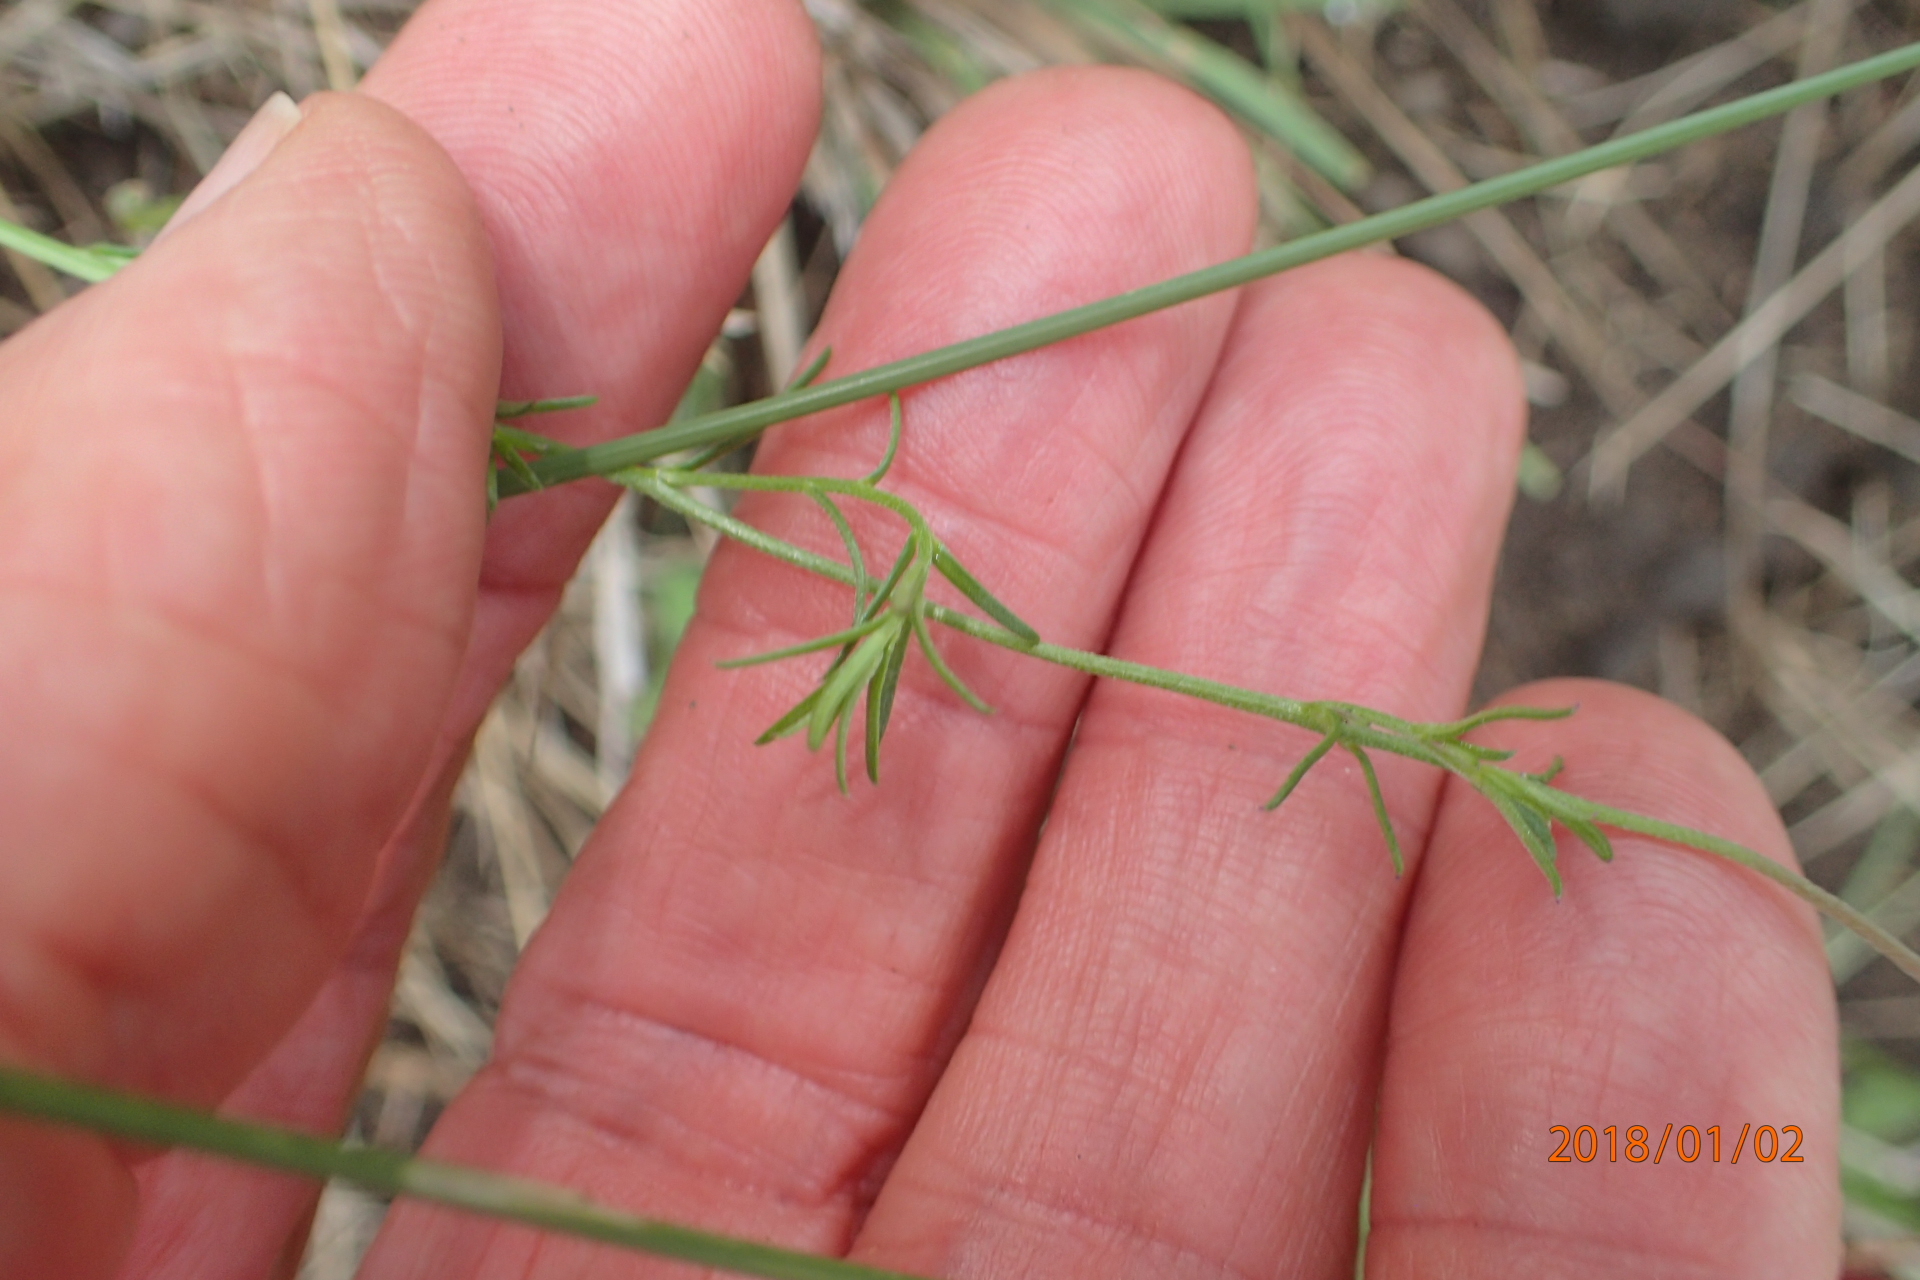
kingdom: Plantae
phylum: Tracheophyta
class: Magnoliopsida
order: Asterales
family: Campanulaceae
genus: Monopsis
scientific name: Monopsis decipiens
